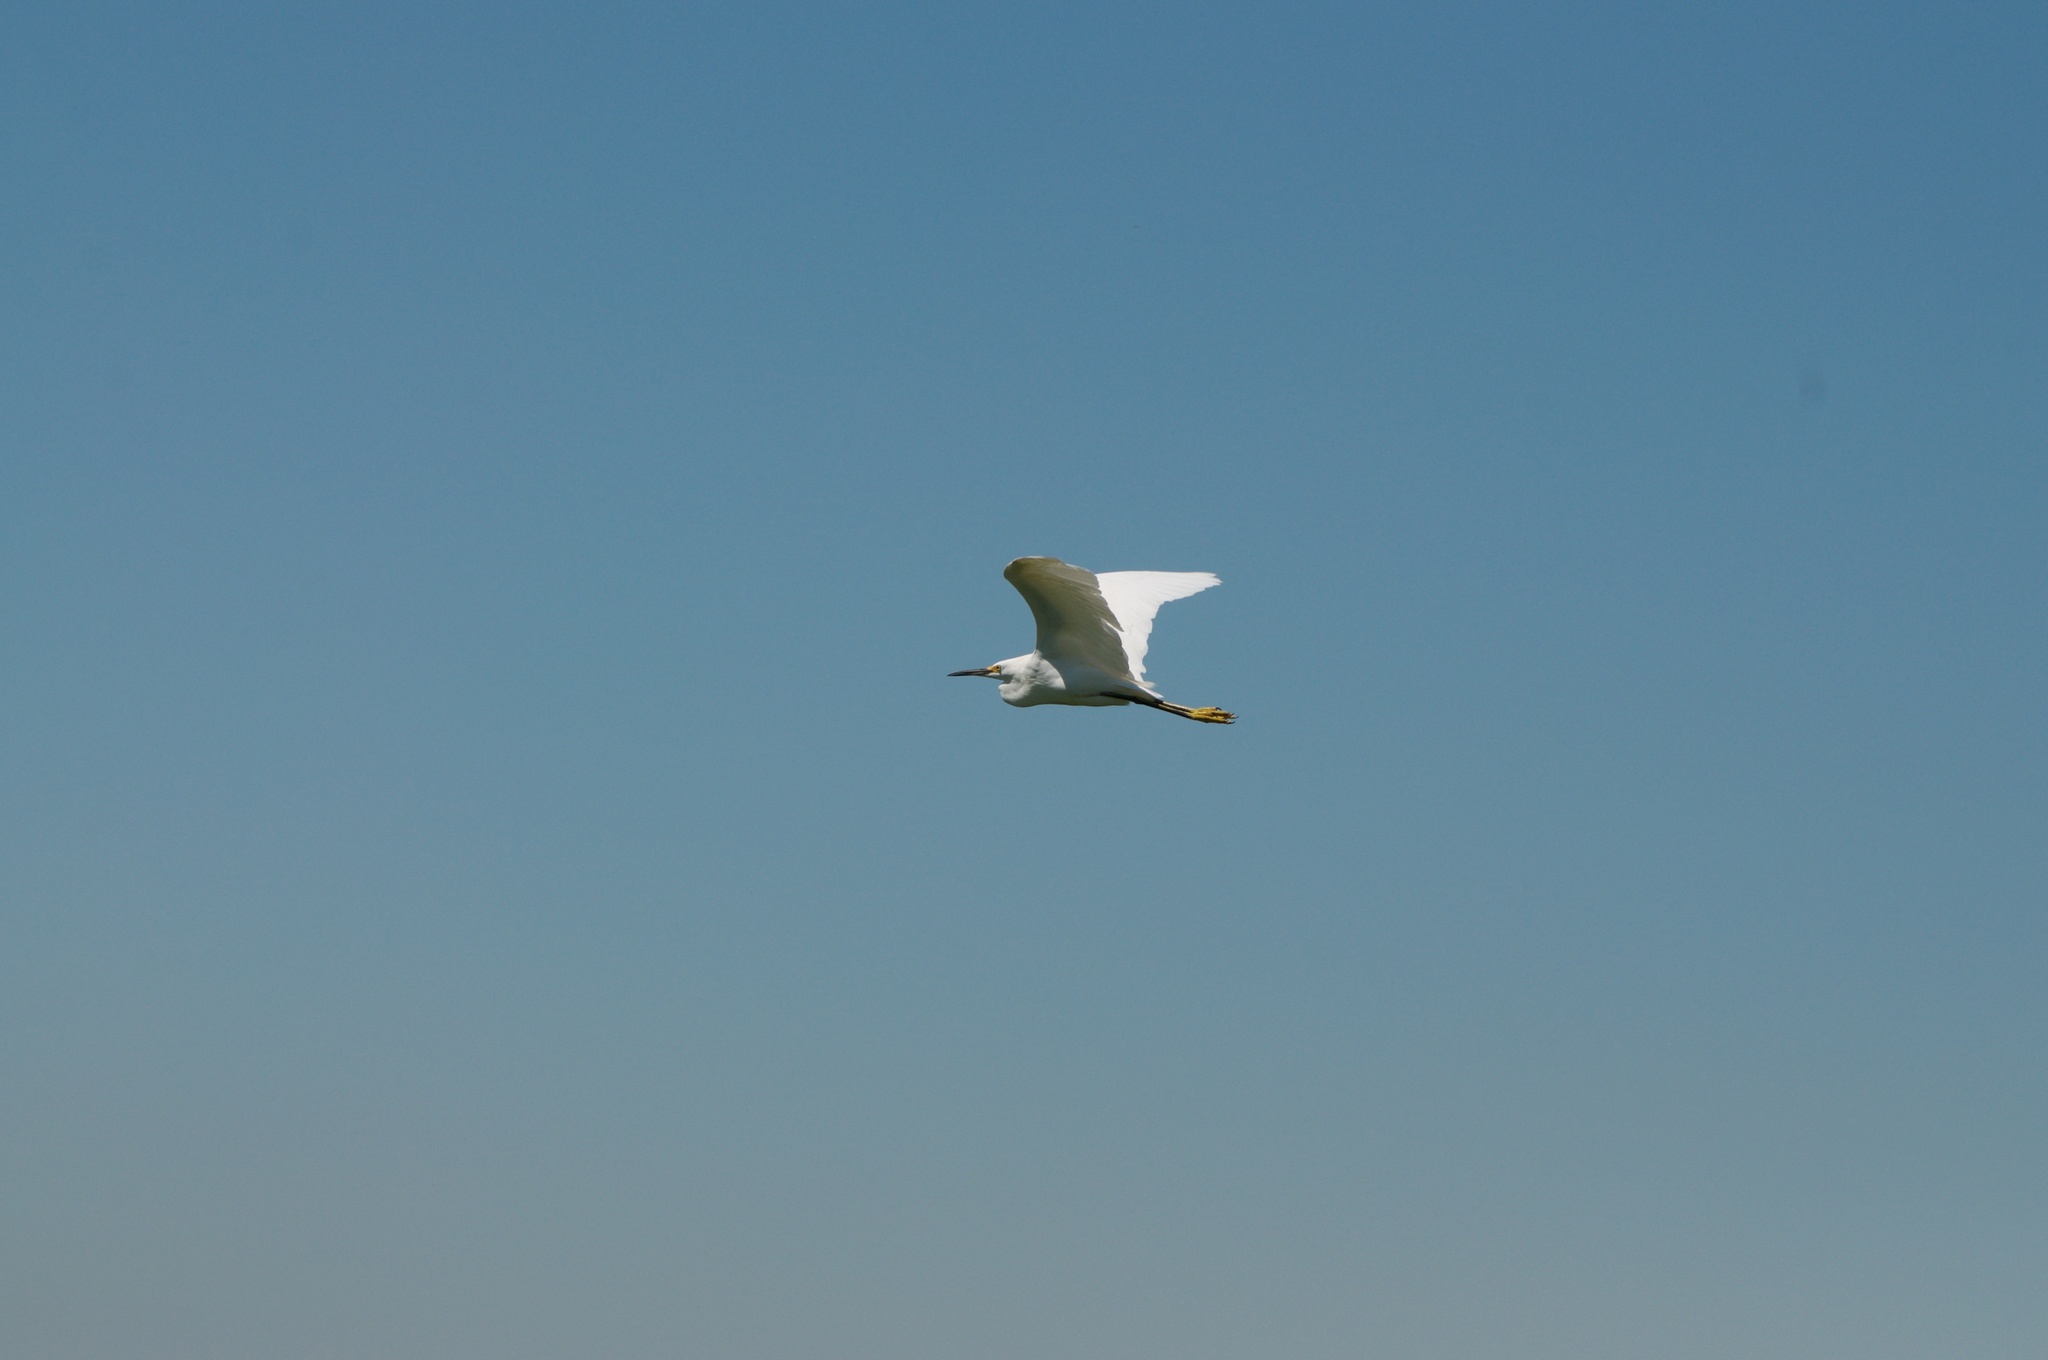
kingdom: Animalia
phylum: Chordata
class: Aves
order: Pelecaniformes
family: Ardeidae
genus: Egretta
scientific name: Egretta thula
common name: Snowy egret
